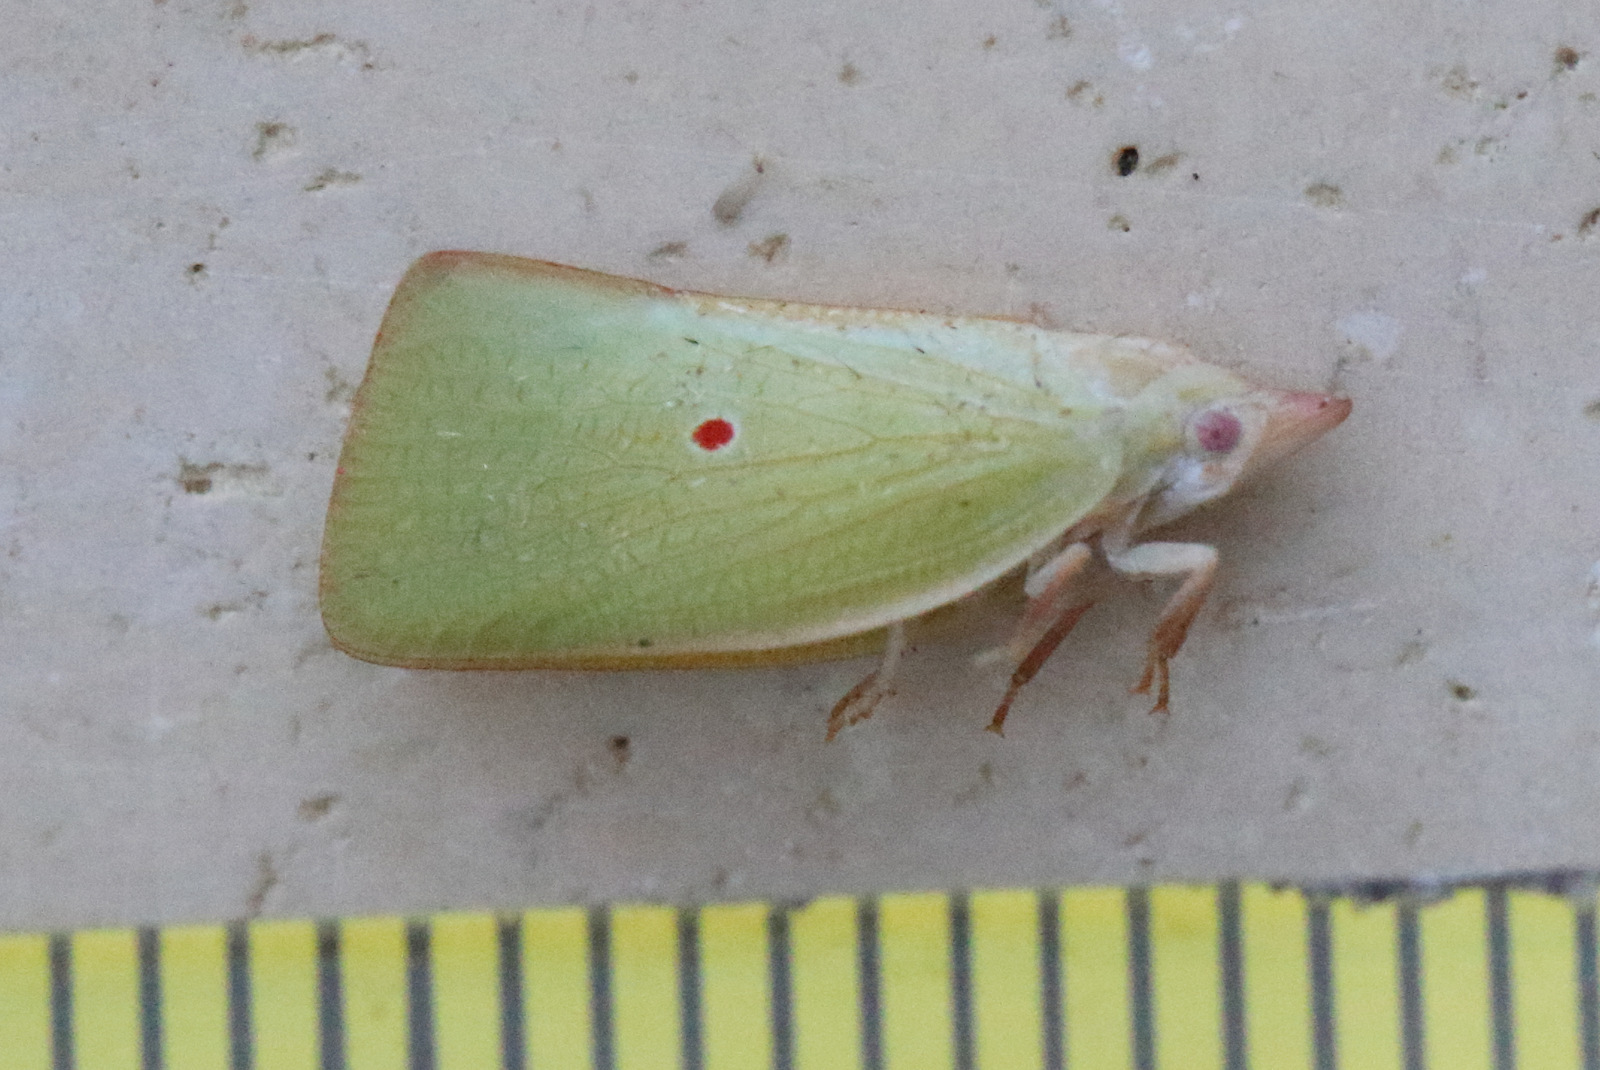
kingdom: Animalia
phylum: Arthropoda
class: Insecta
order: Hemiptera
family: Flatidae
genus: Colgaroides
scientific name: Colgaroides acuminata
